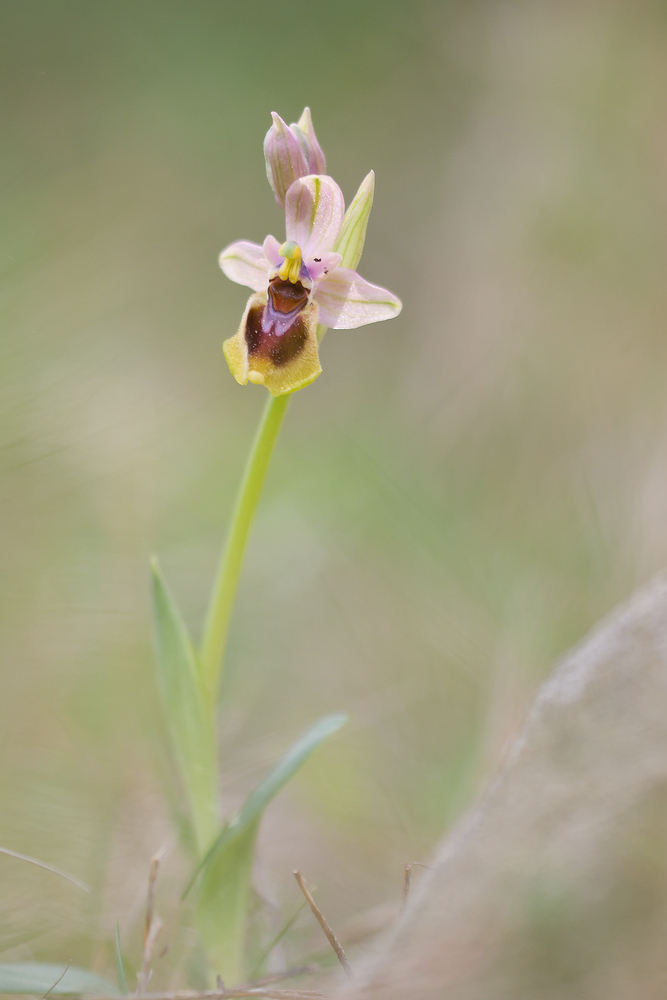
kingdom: Plantae
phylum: Tracheophyta
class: Liliopsida
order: Asparagales
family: Orchidaceae
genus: Ophrys
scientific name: Ophrys tenthredinifera
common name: Sawfly orchid
